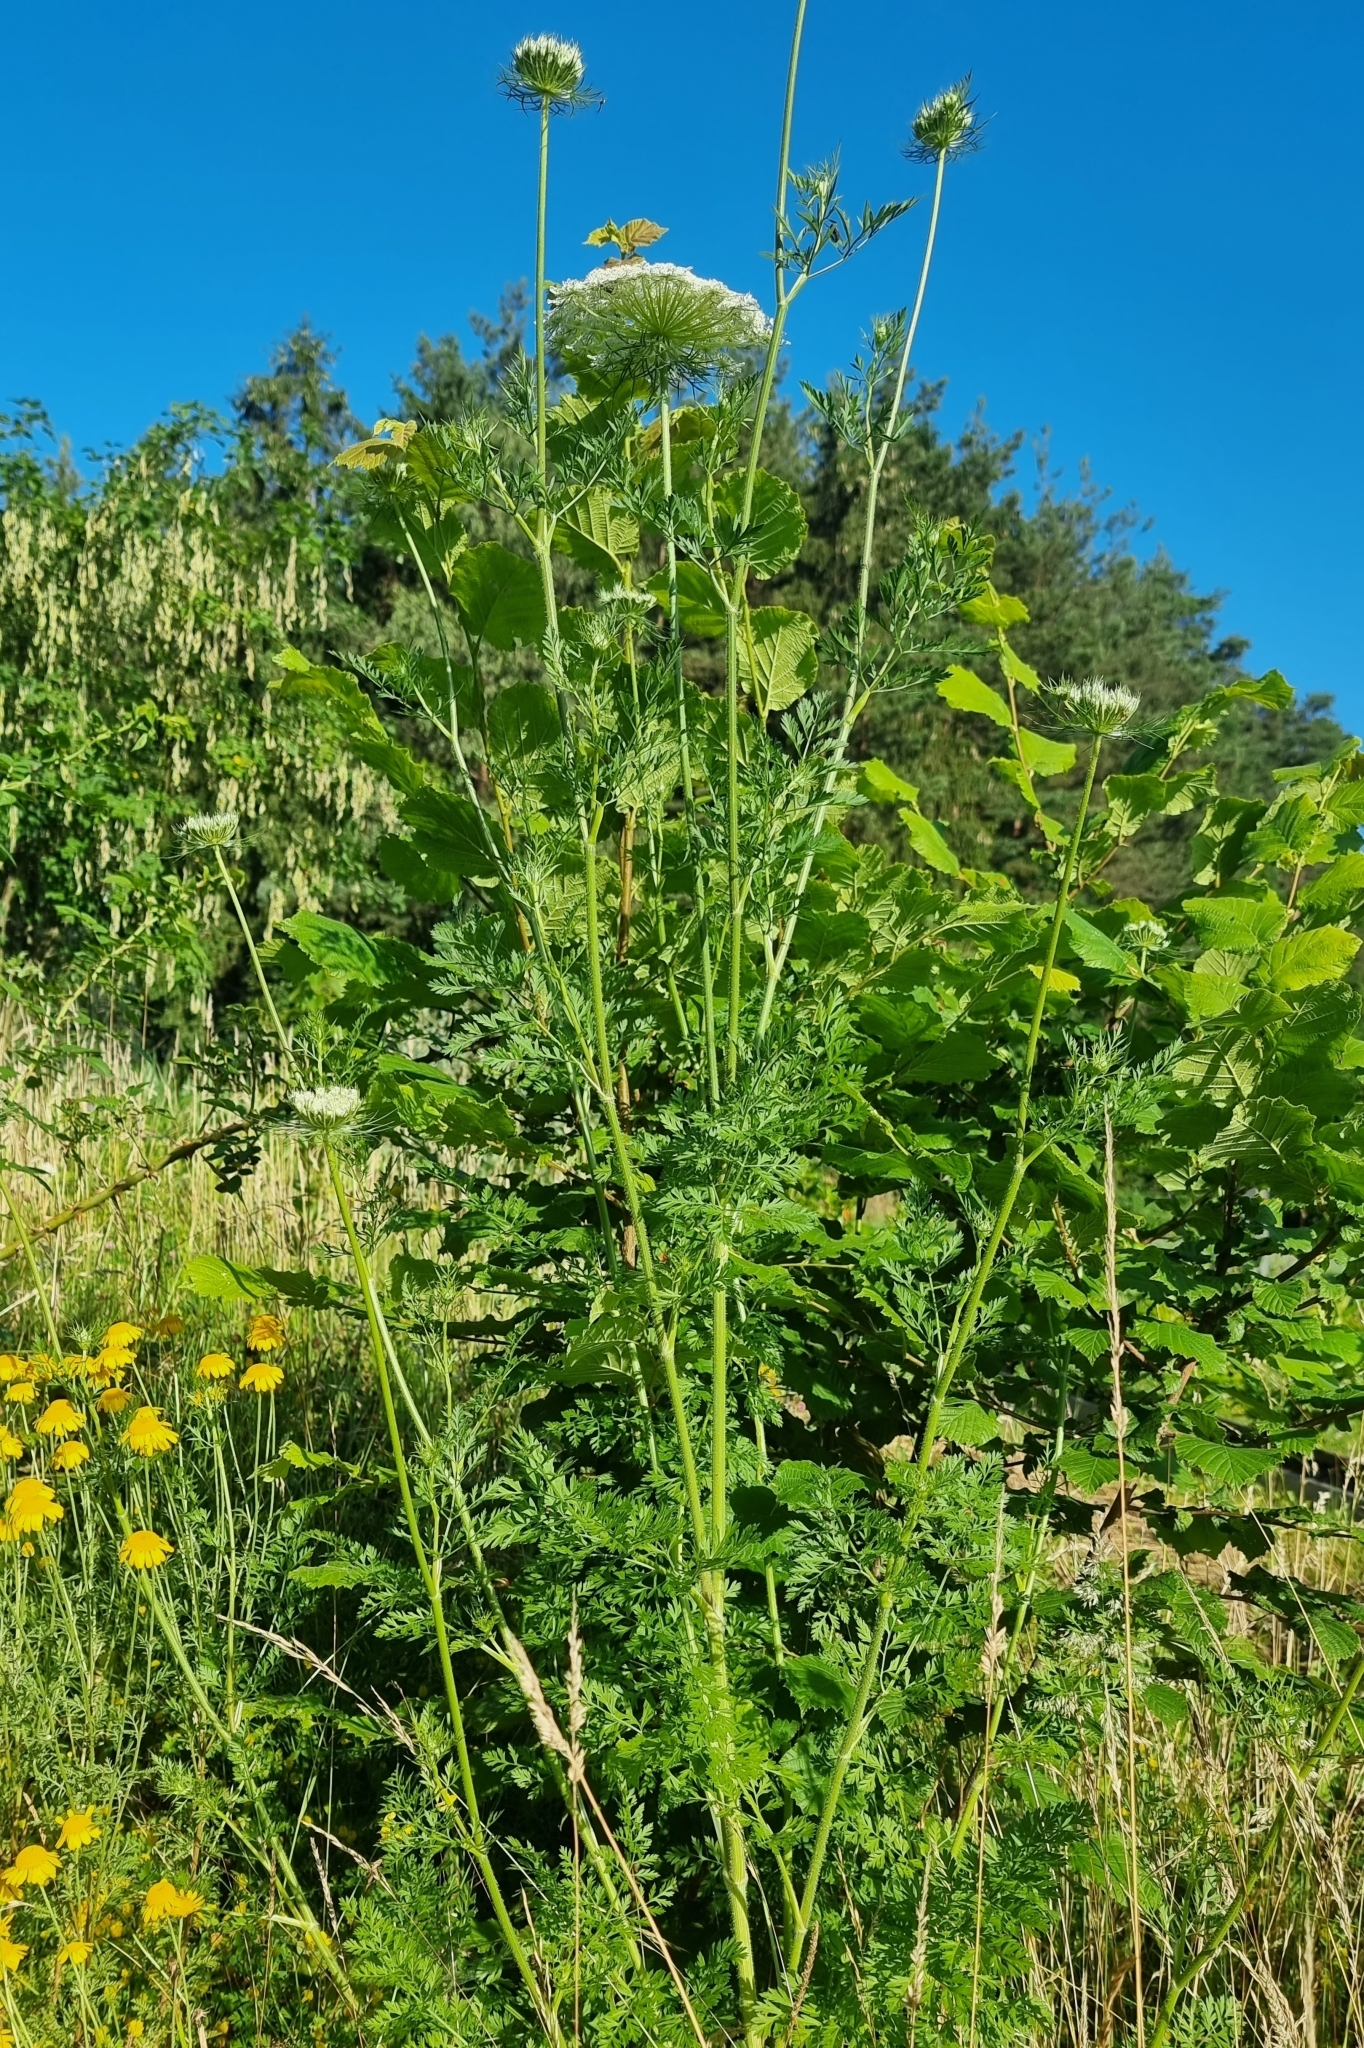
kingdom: Plantae
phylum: Tracheophyta
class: Magnoliopsida
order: Apiales
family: Apiaceae
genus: Daucus
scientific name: Daucus carota
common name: Wild carrot
